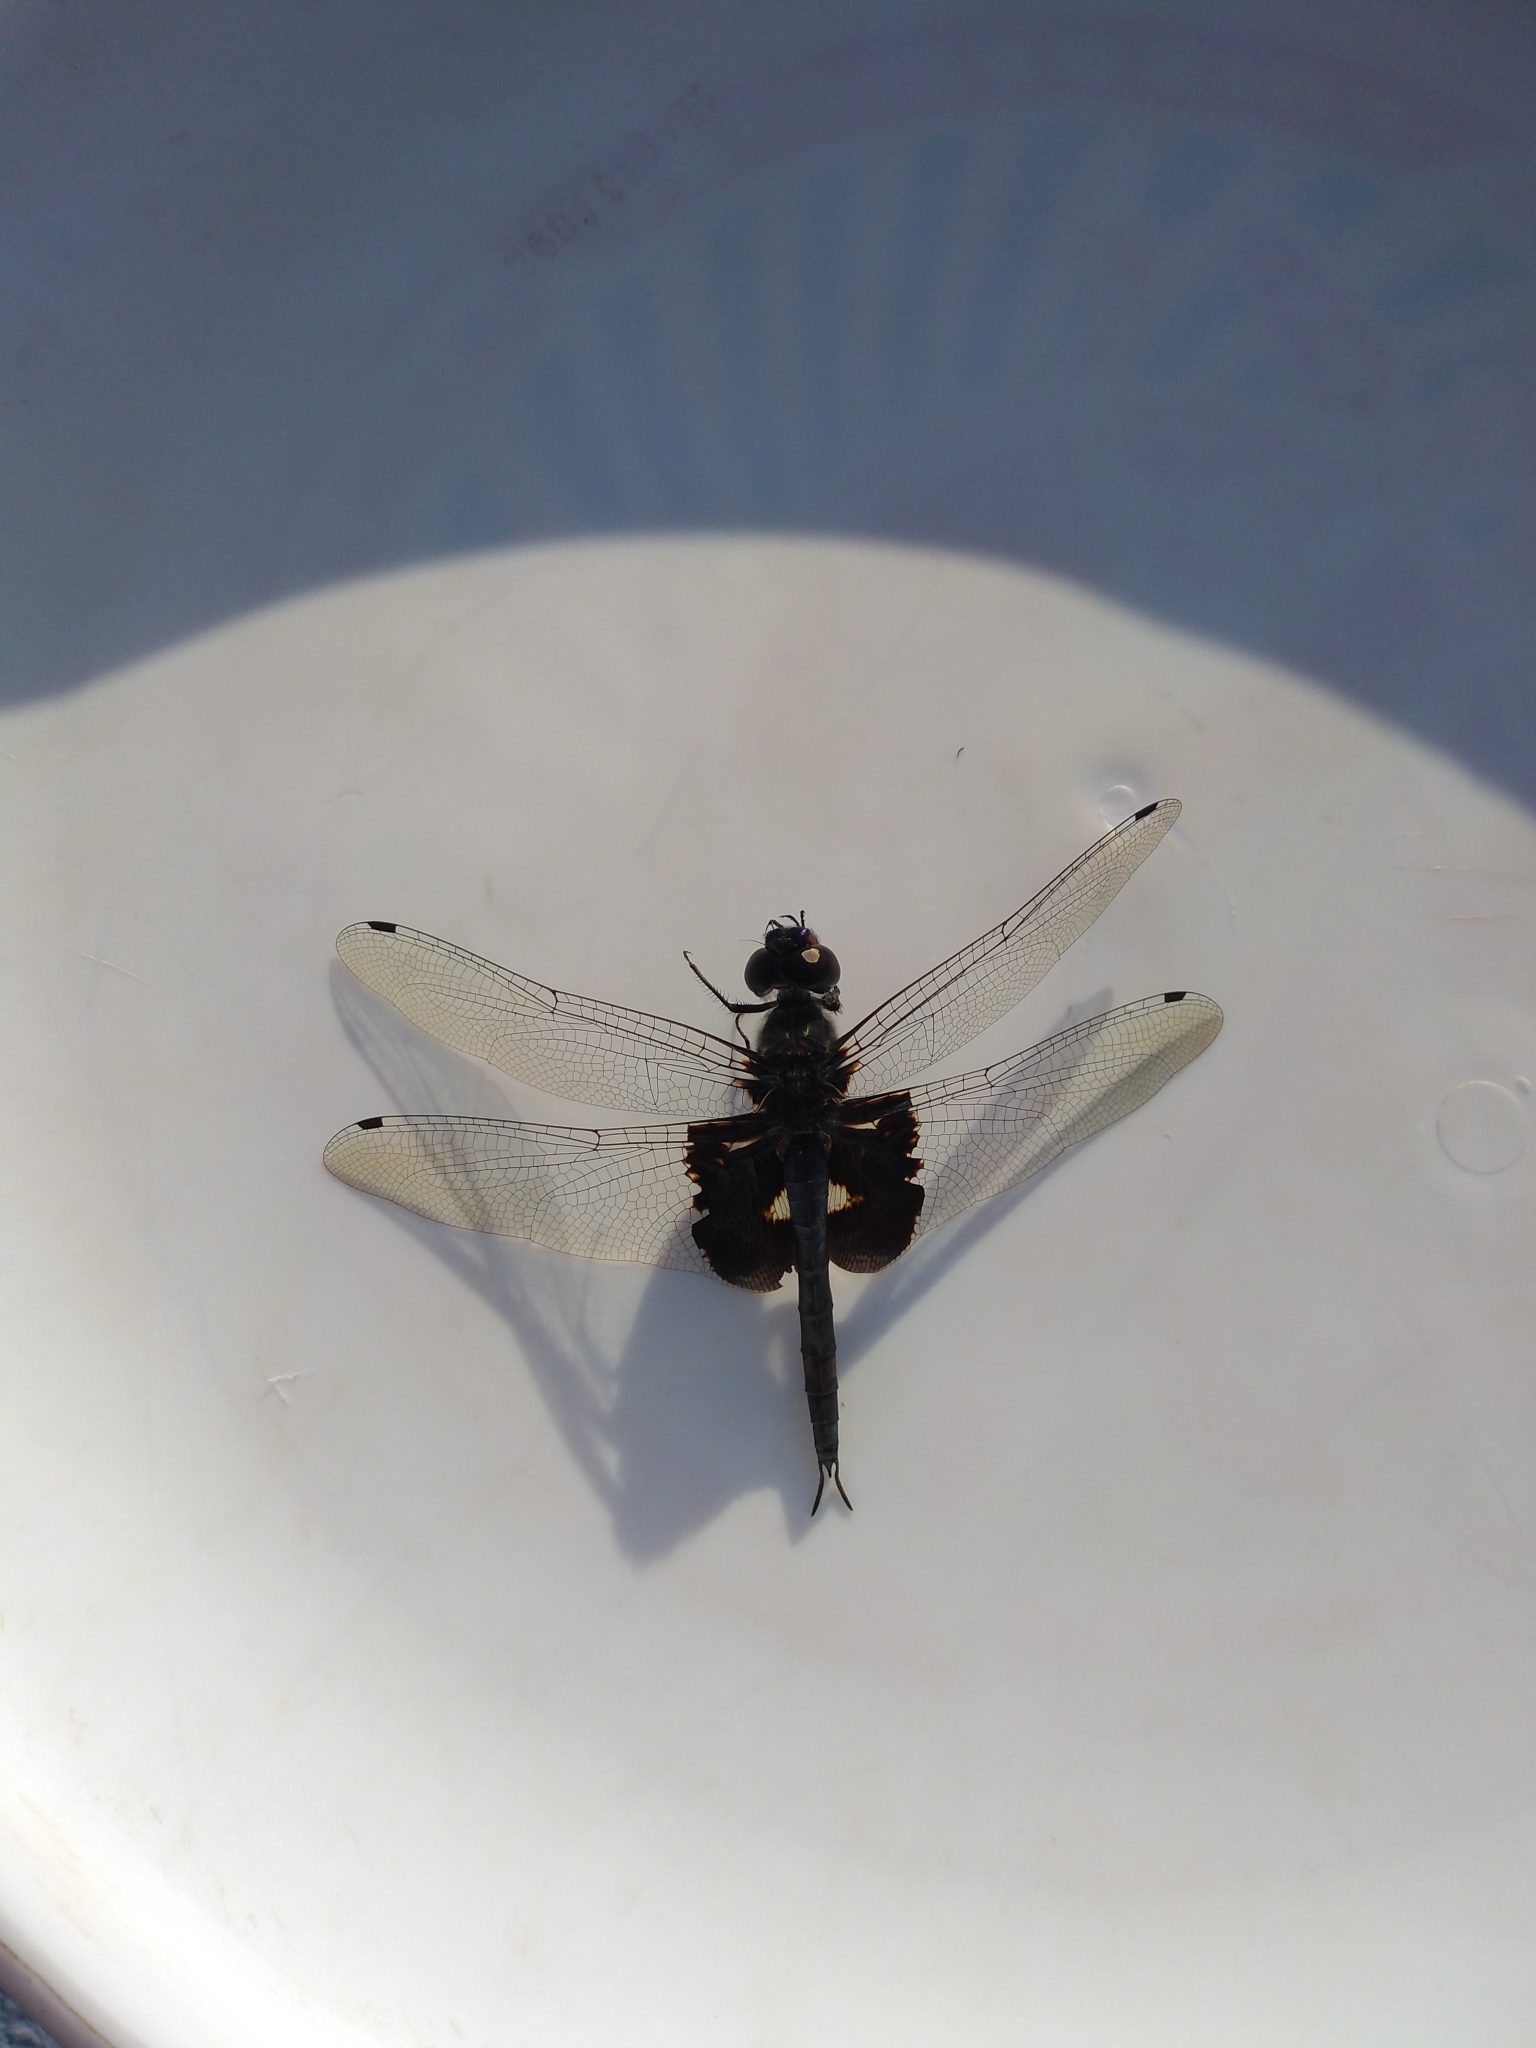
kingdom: Animalia
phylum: Arthropoda
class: Insecta
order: Odonata
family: Libellulidae
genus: Tramea
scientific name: Tramea lacerata
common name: Black saddlebags
